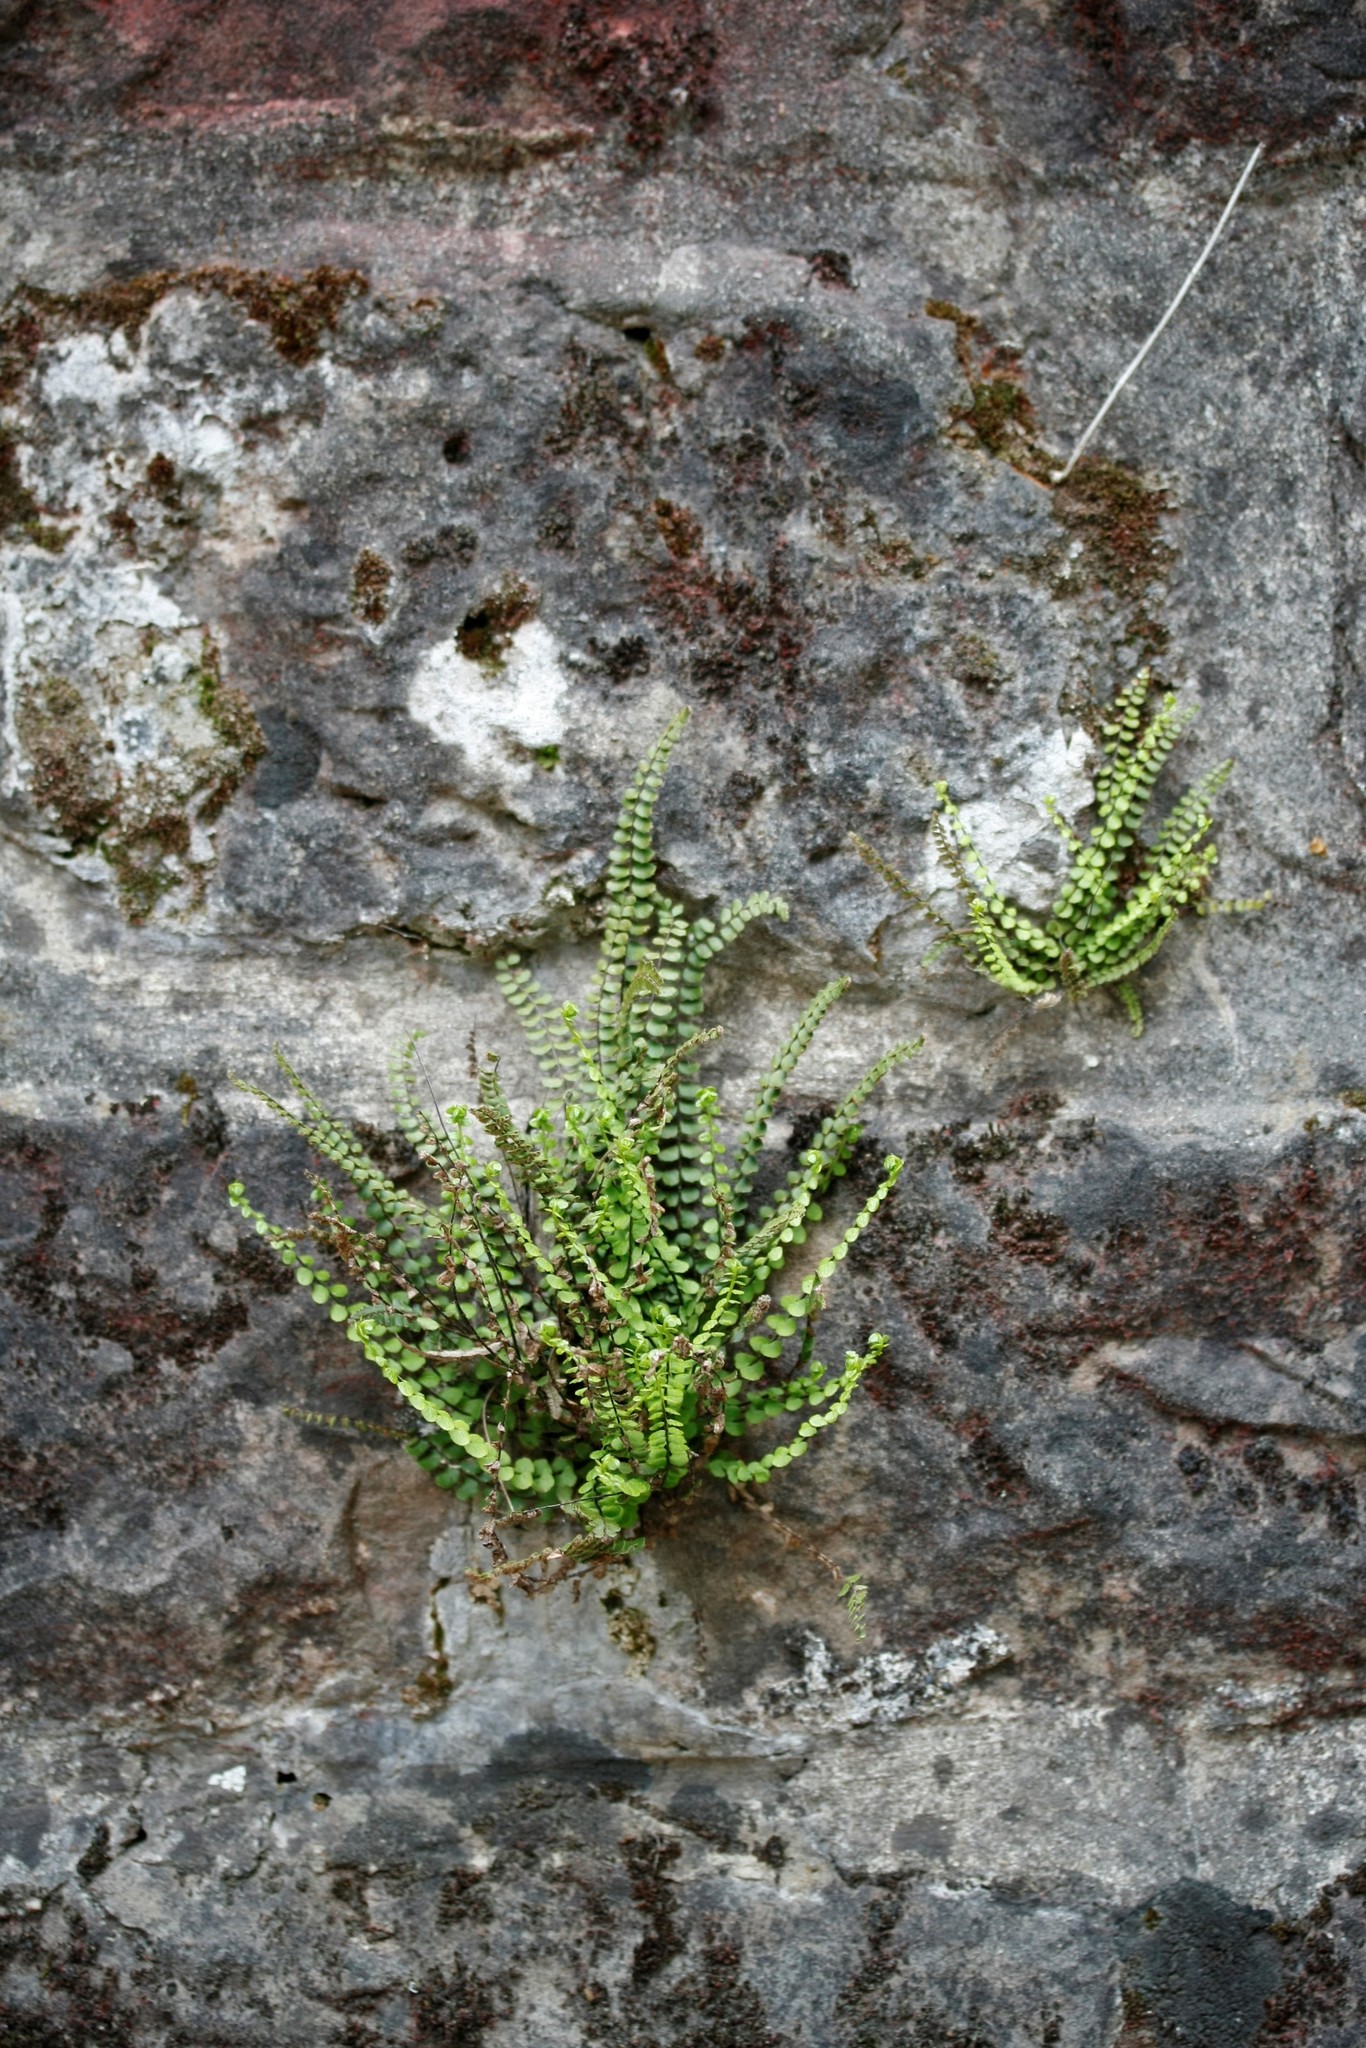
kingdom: Plantae
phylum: Tracheophyta
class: Polypodiopsida
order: Polypodiales
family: Aspleniaceae
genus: Asplenium
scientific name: Asplenium trichomanes
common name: Maidenhair spleenwort
